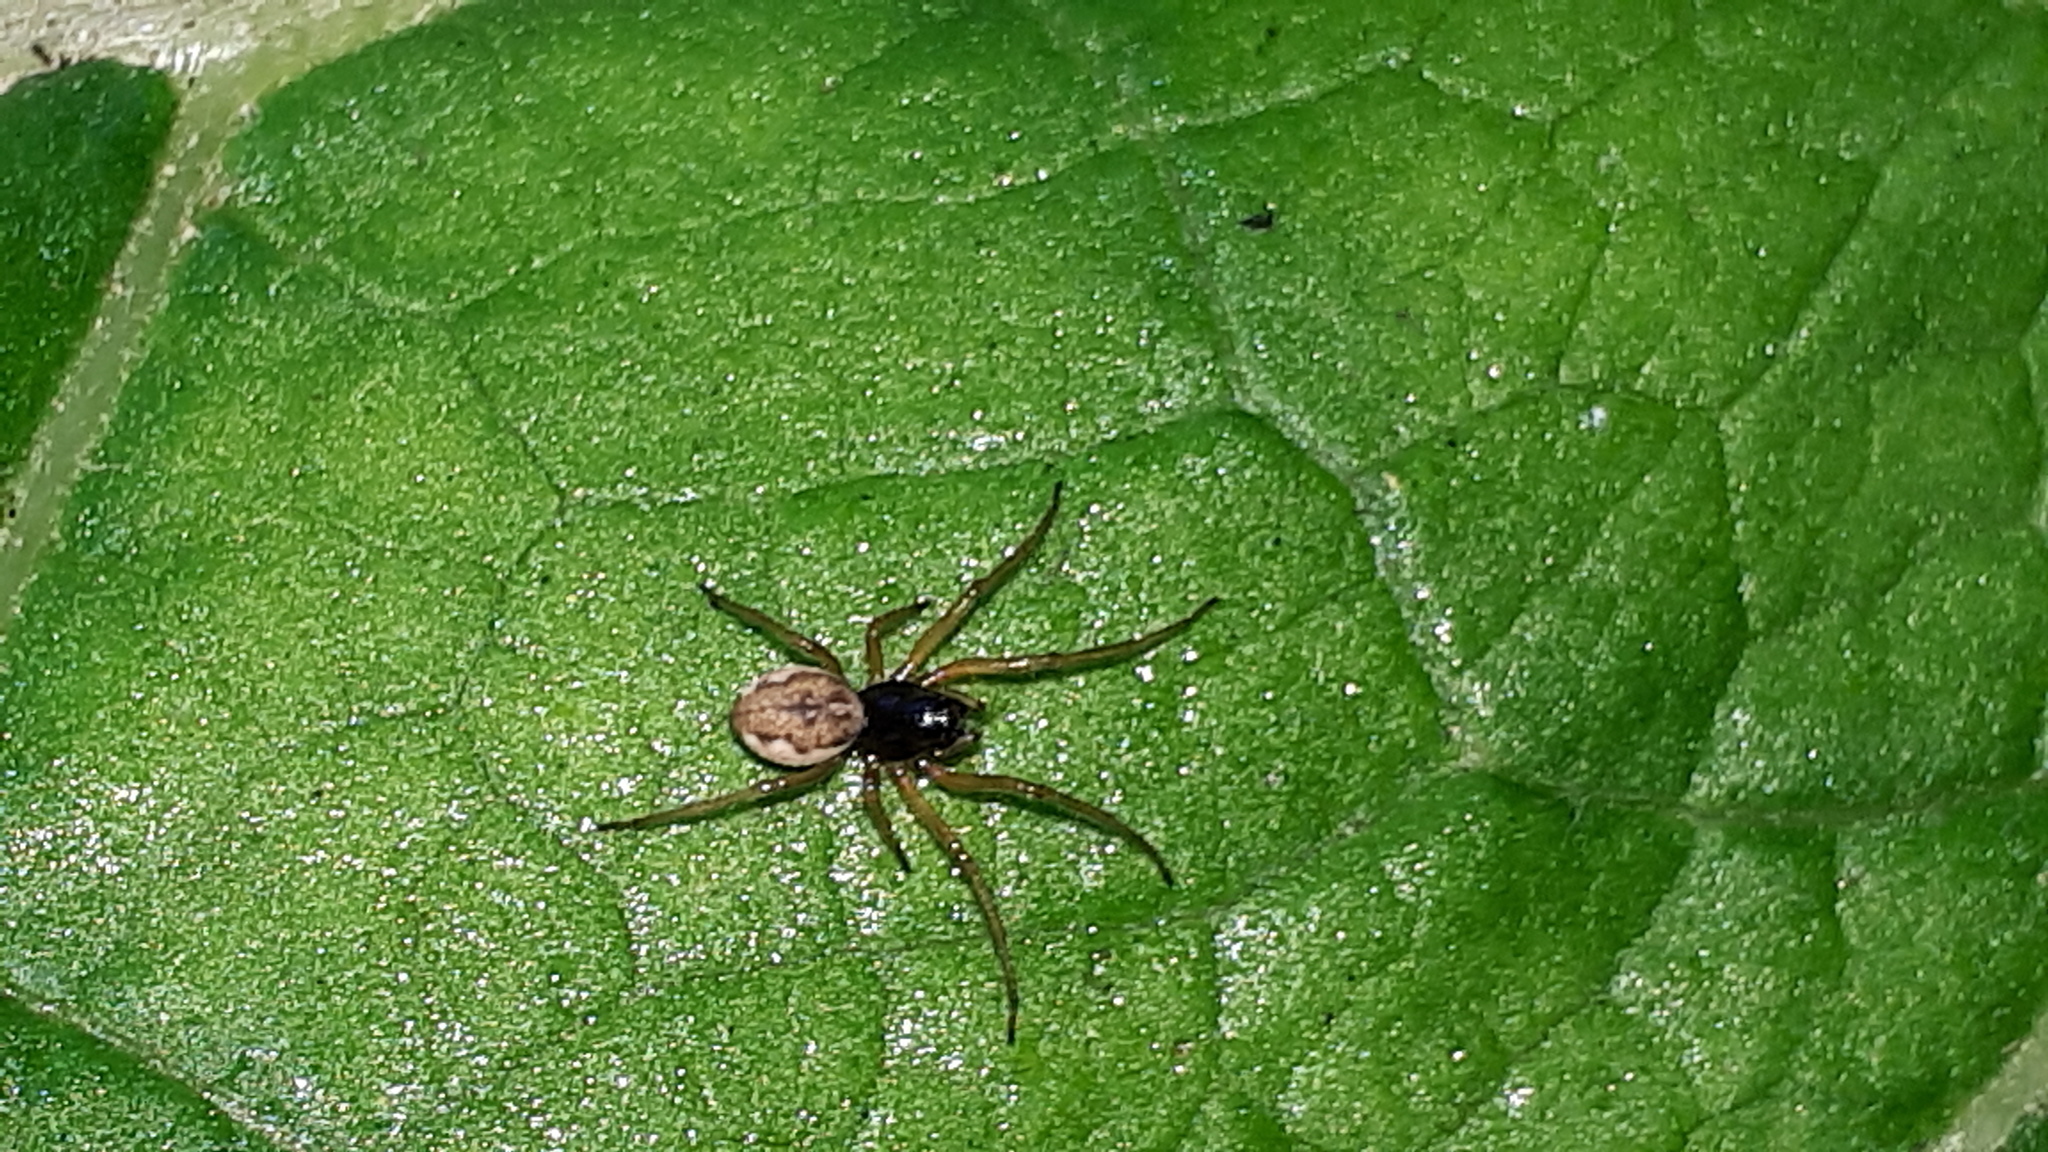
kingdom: Animalia
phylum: Arthropoda
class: Arachnida
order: Araneae
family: Tetragnathidae
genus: Pachygnatha
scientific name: Pachygnatha degeeri
